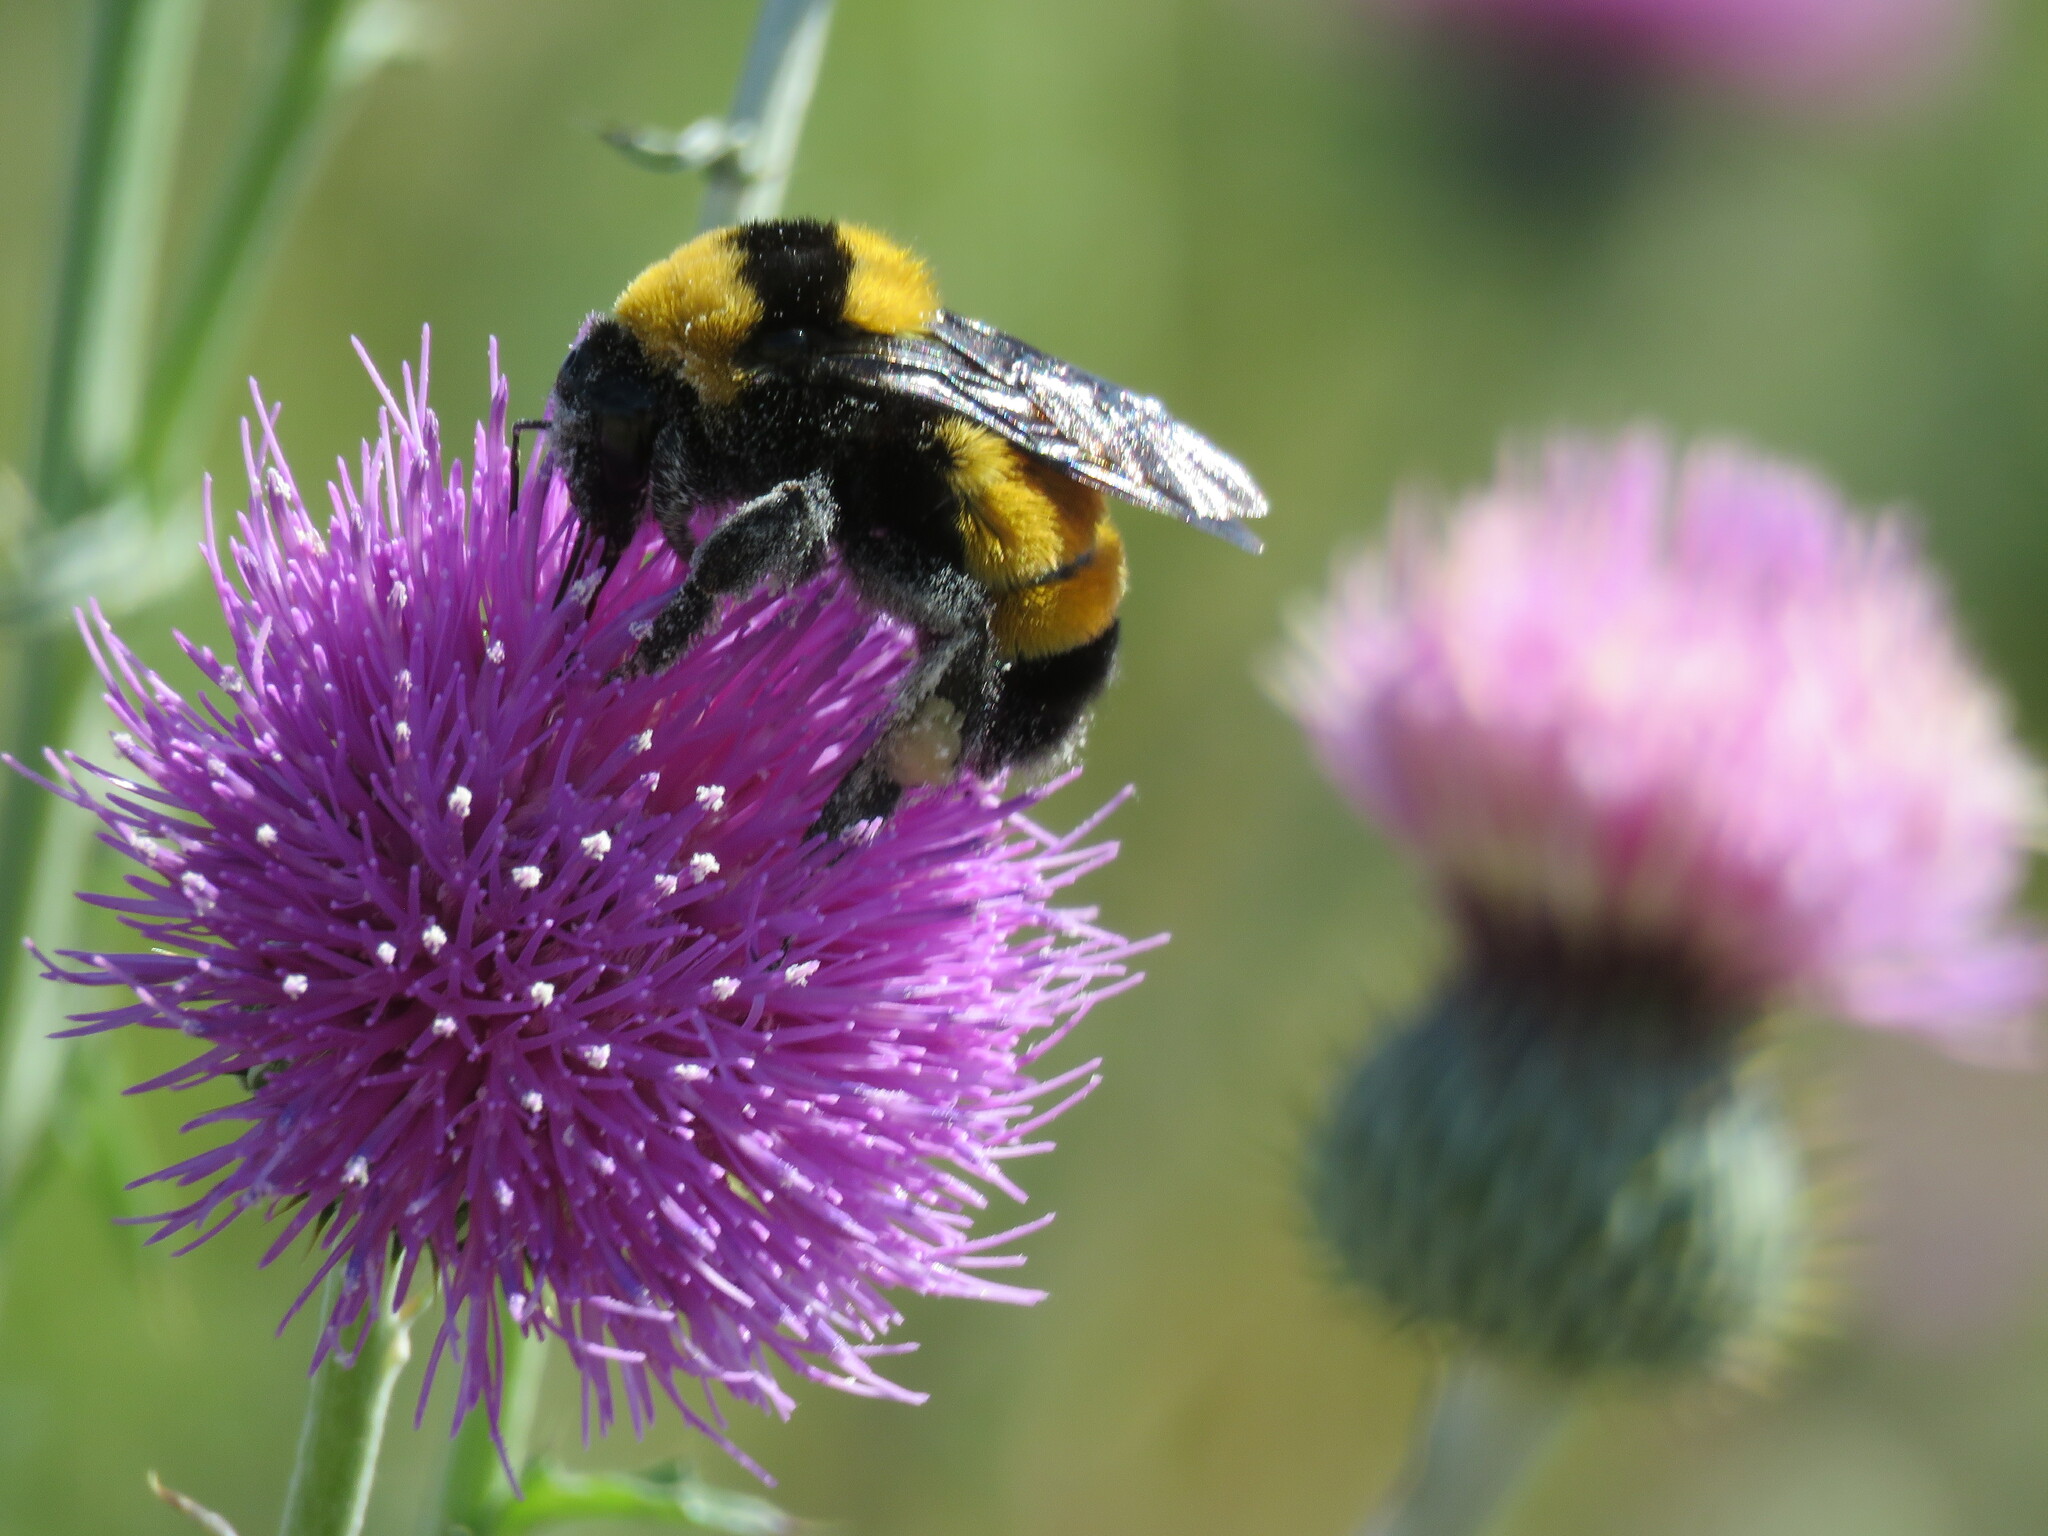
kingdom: Animalia
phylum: Arthropoda
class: Insecta
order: Hymenoptera
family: Apidae
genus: Bombus
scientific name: Bombus sonorus
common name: Sonoran bumble bee
